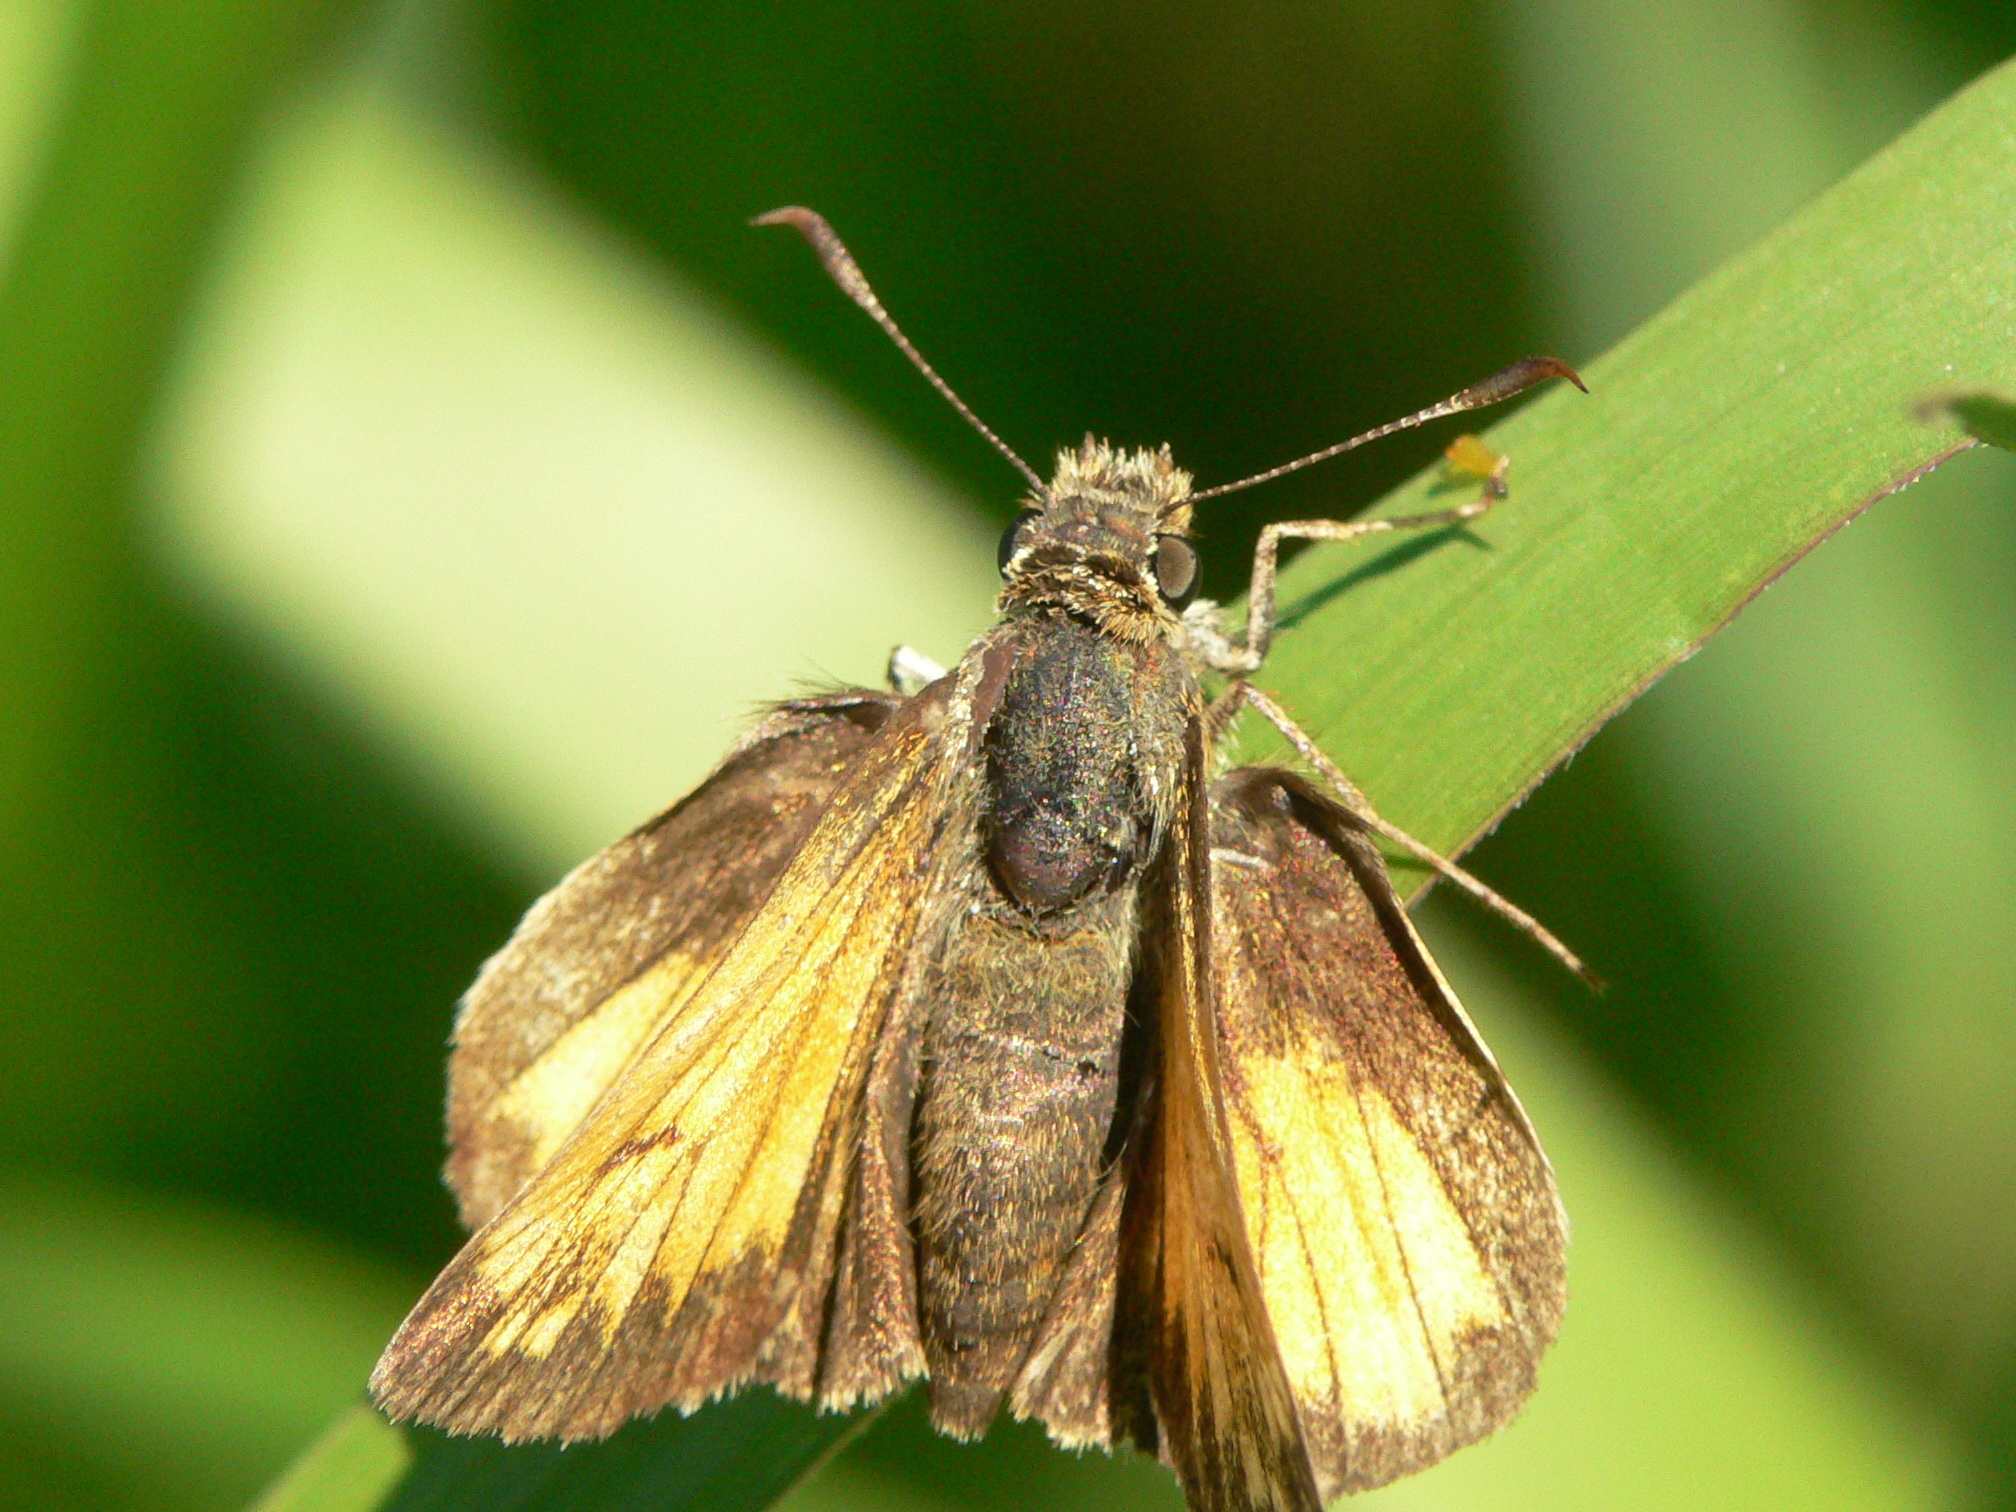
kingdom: Animalia
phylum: Arthropoda
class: Insecta
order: Lepidoptera
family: Hesperiidae
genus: Lon
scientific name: Lon hobomok
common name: Hobomok skipper
